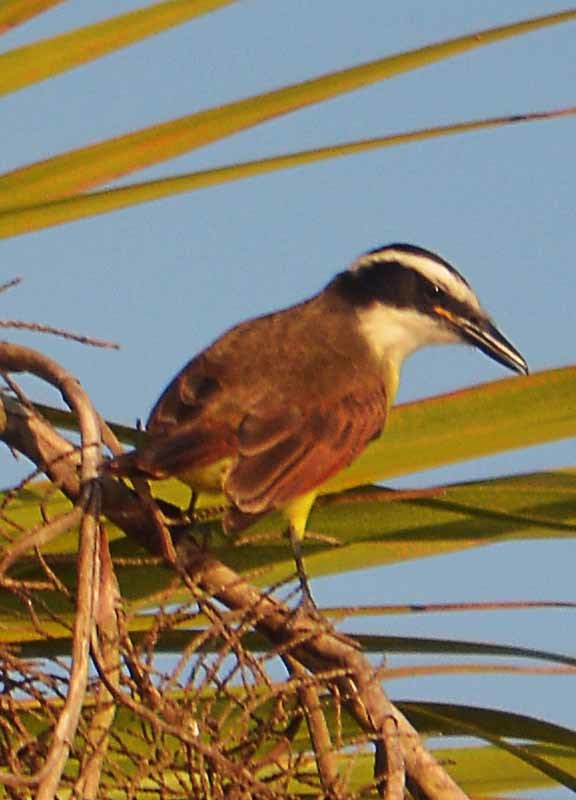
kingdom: Animalia
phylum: Chordata
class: Aves
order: Passeriformes
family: Tyrannidae
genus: Pitangus
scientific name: Pitangus sulphuratus
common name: Great kiskadee
